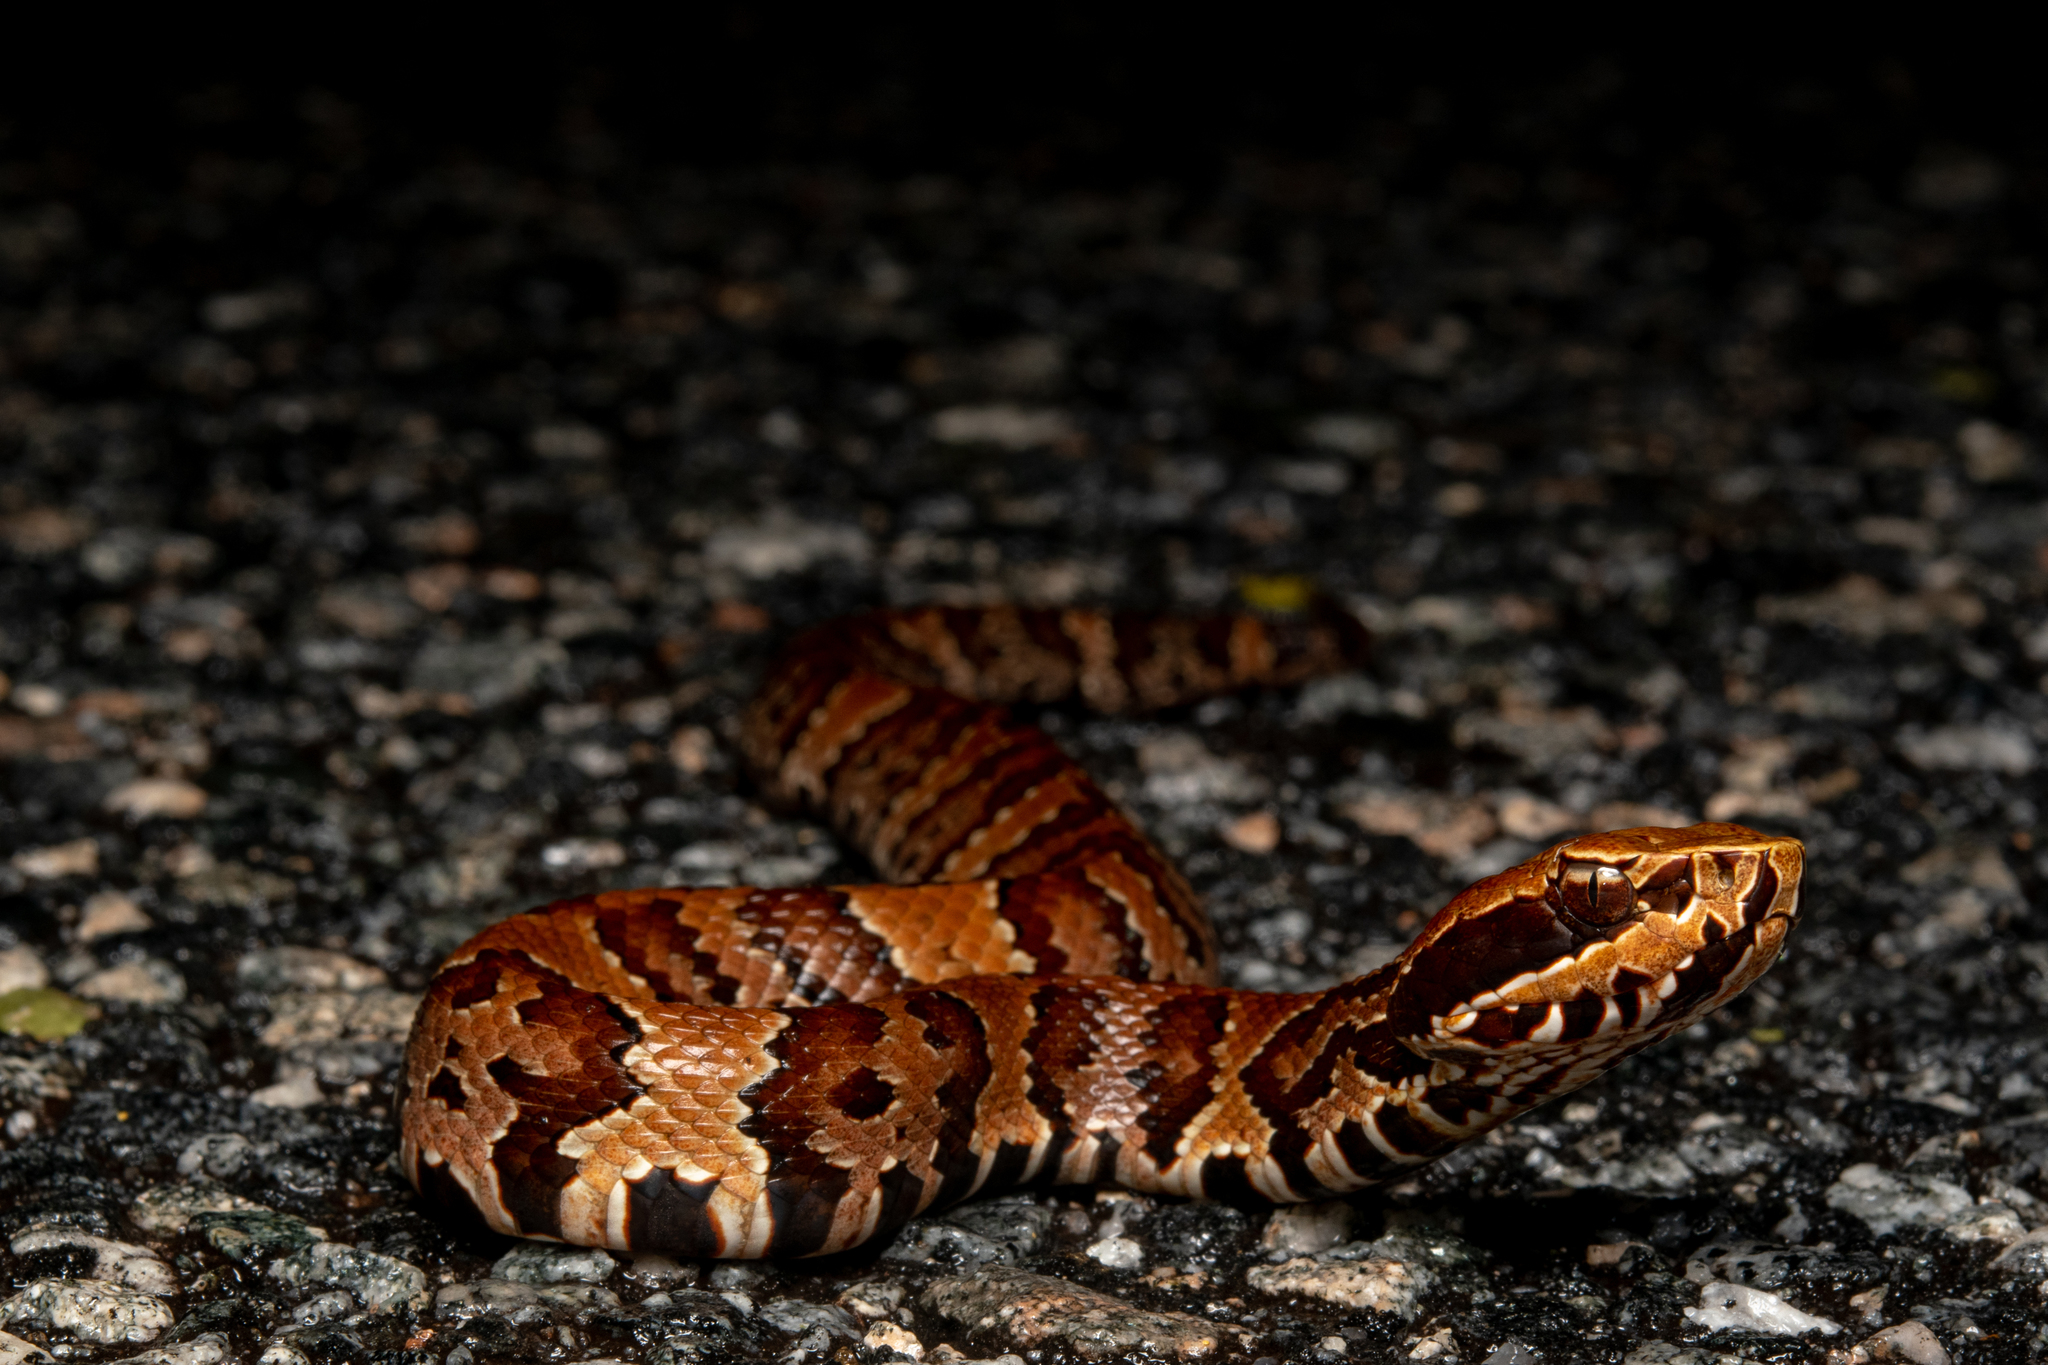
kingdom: Animalia
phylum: Chordata
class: Squamata
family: Viperidae
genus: Agkistrodon
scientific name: Agkistrodon conanti
